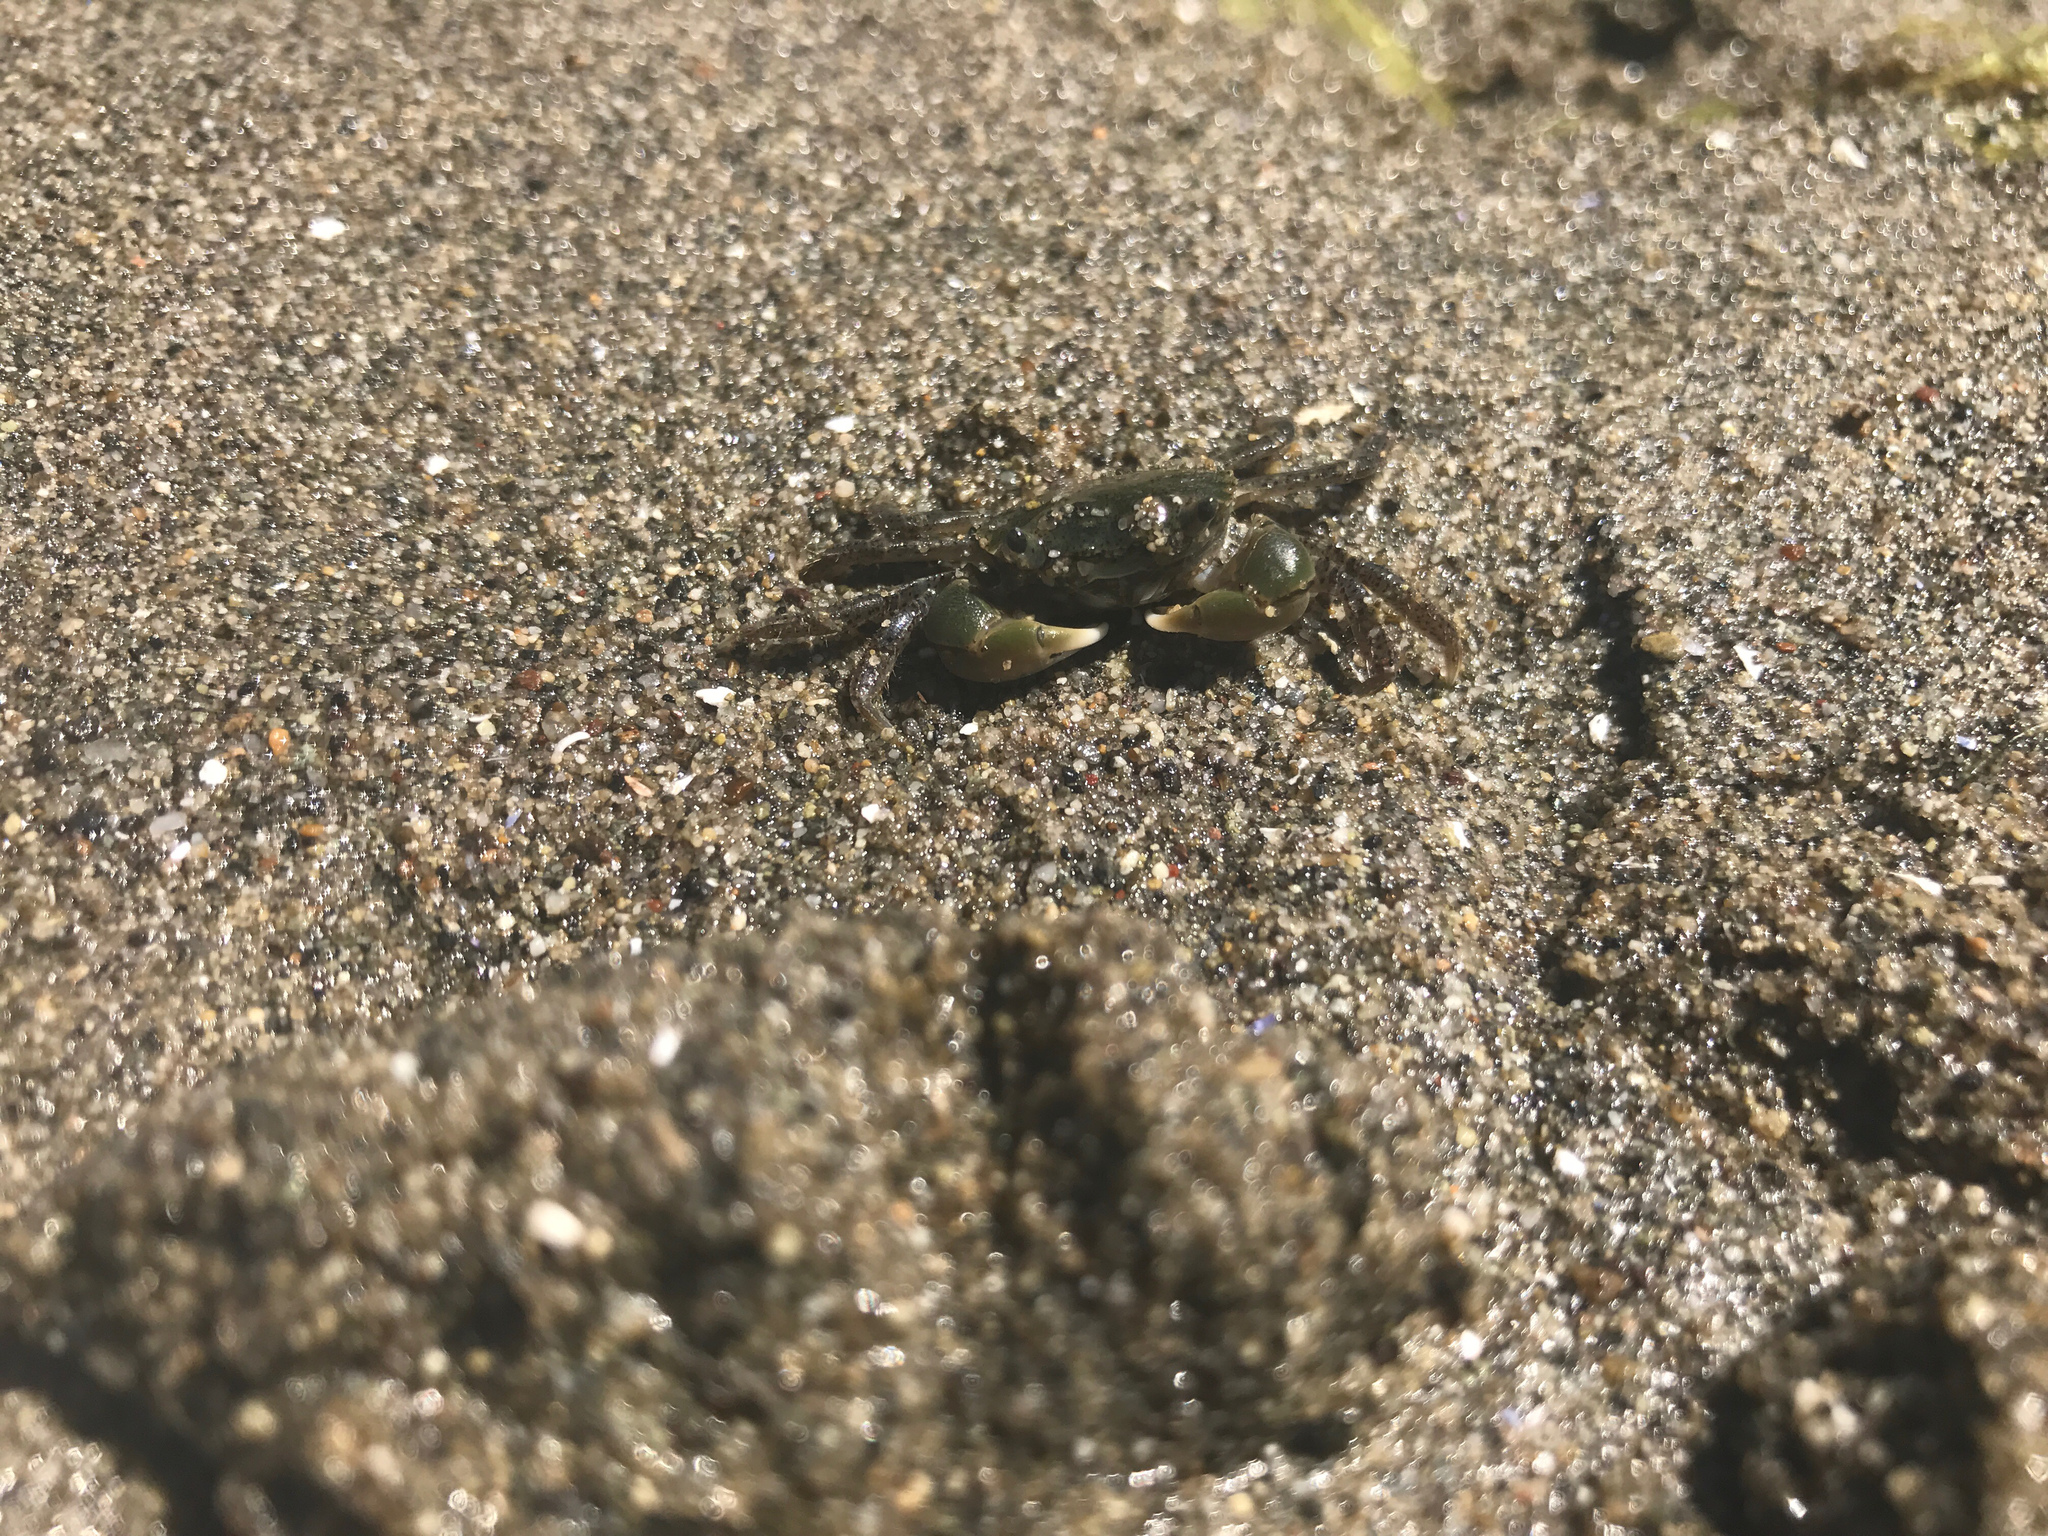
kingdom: Animalia
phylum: Arthropoda
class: Malacostraca
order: Decapoda
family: Varunidae
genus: Hemigrapsus
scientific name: Hemigrapsus oregonensis
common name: Yellow shore crab
